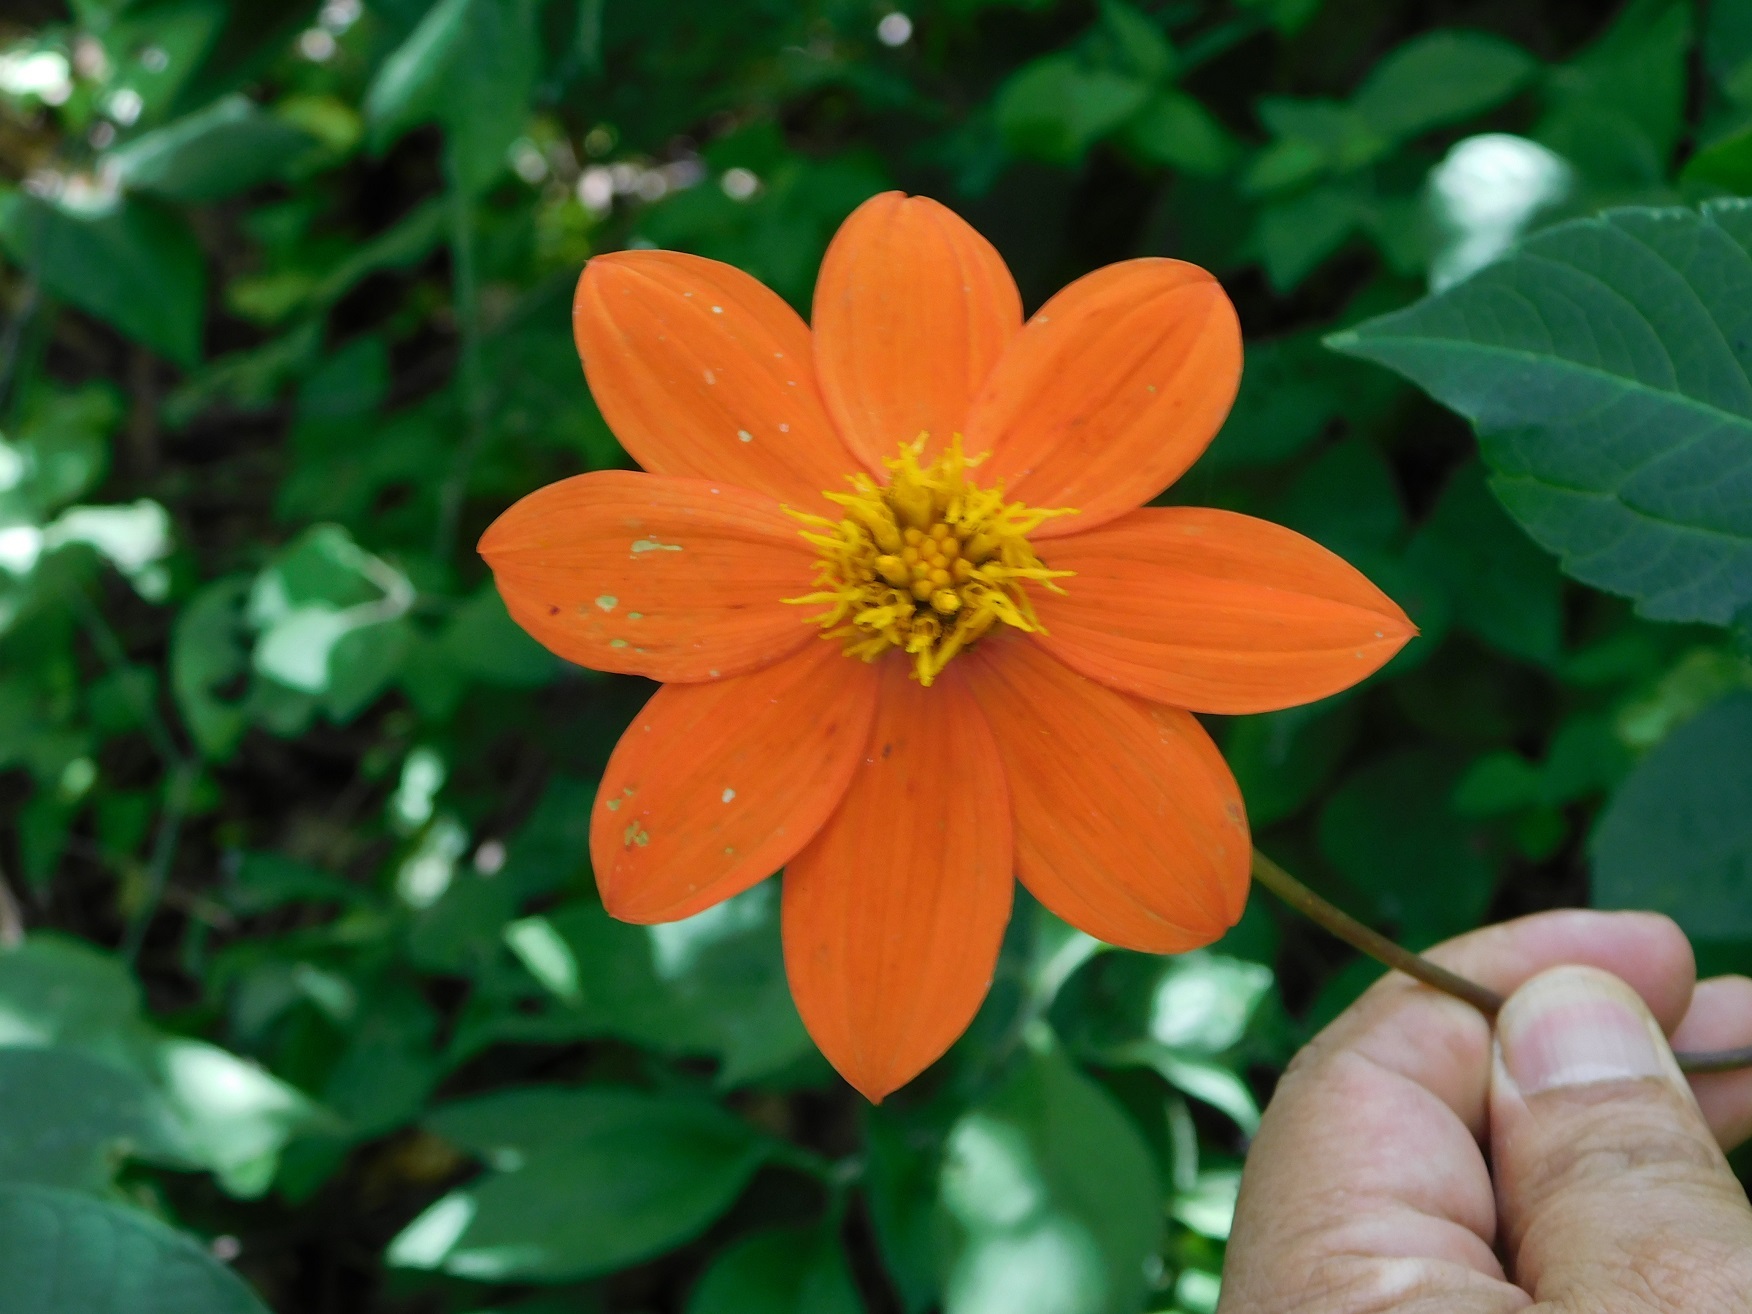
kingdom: Plantae
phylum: Tracheophyta
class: Magnoliopsida
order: Asterales
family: Asteraceae
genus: Dahlia
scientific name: Dahlia coccinea
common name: Red dahlia
